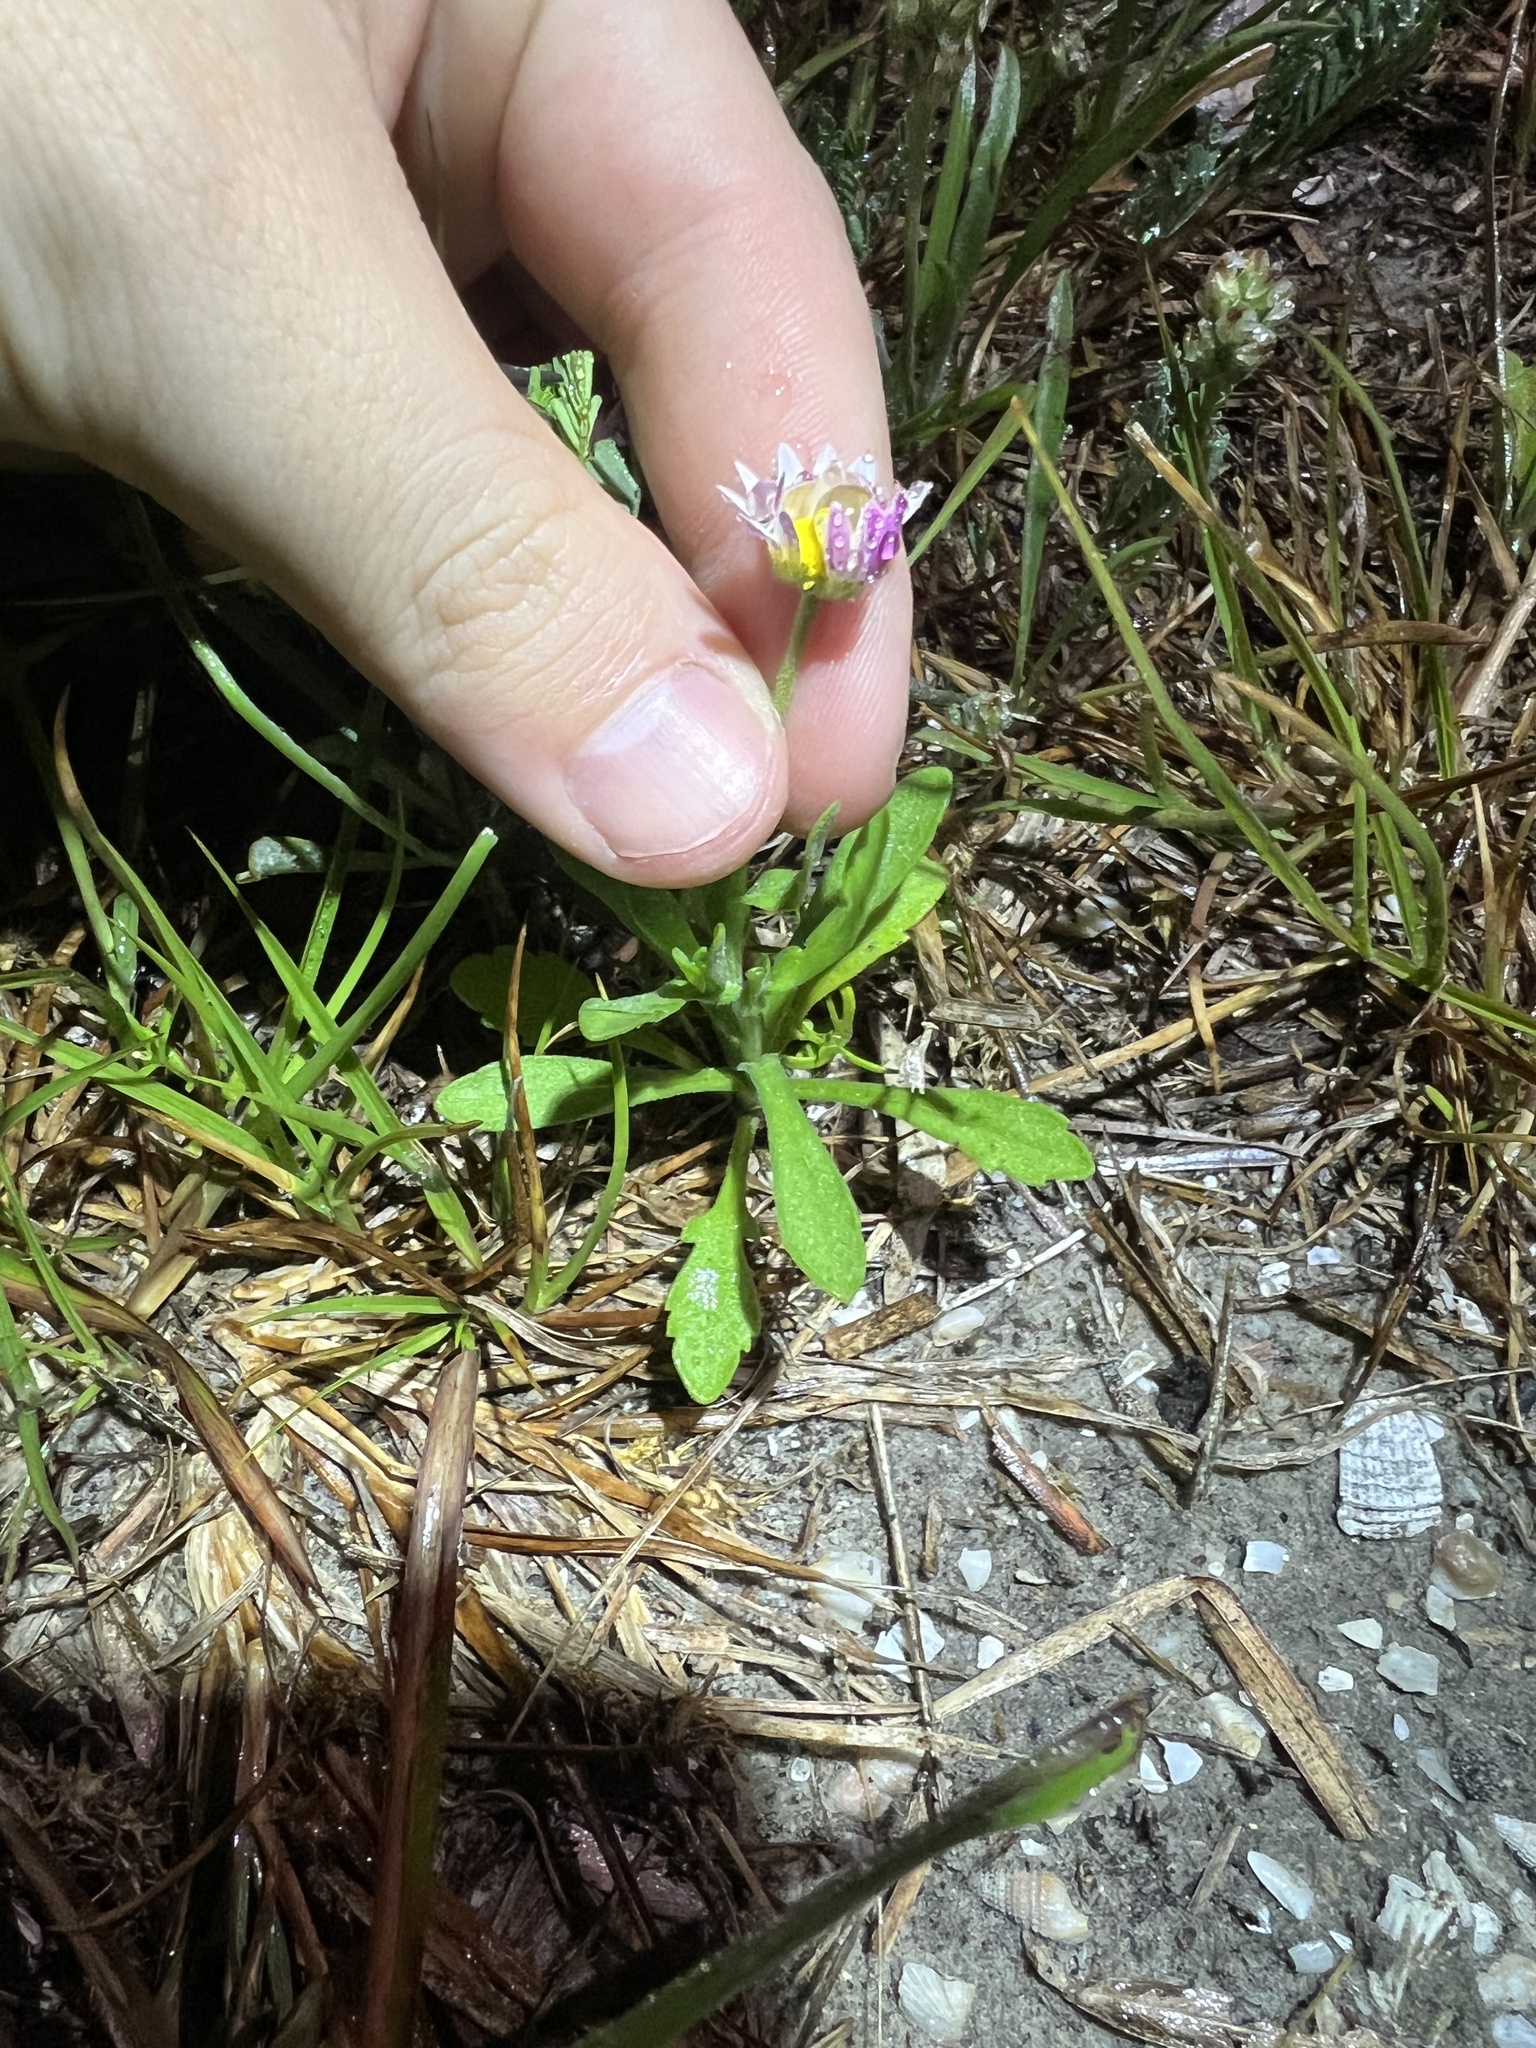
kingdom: Plantae
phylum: Tracheophyta
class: Magnoliopsida
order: Asterales
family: Asteraceae
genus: Aphanostephus
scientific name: Aphanostephus skirrhobasis
